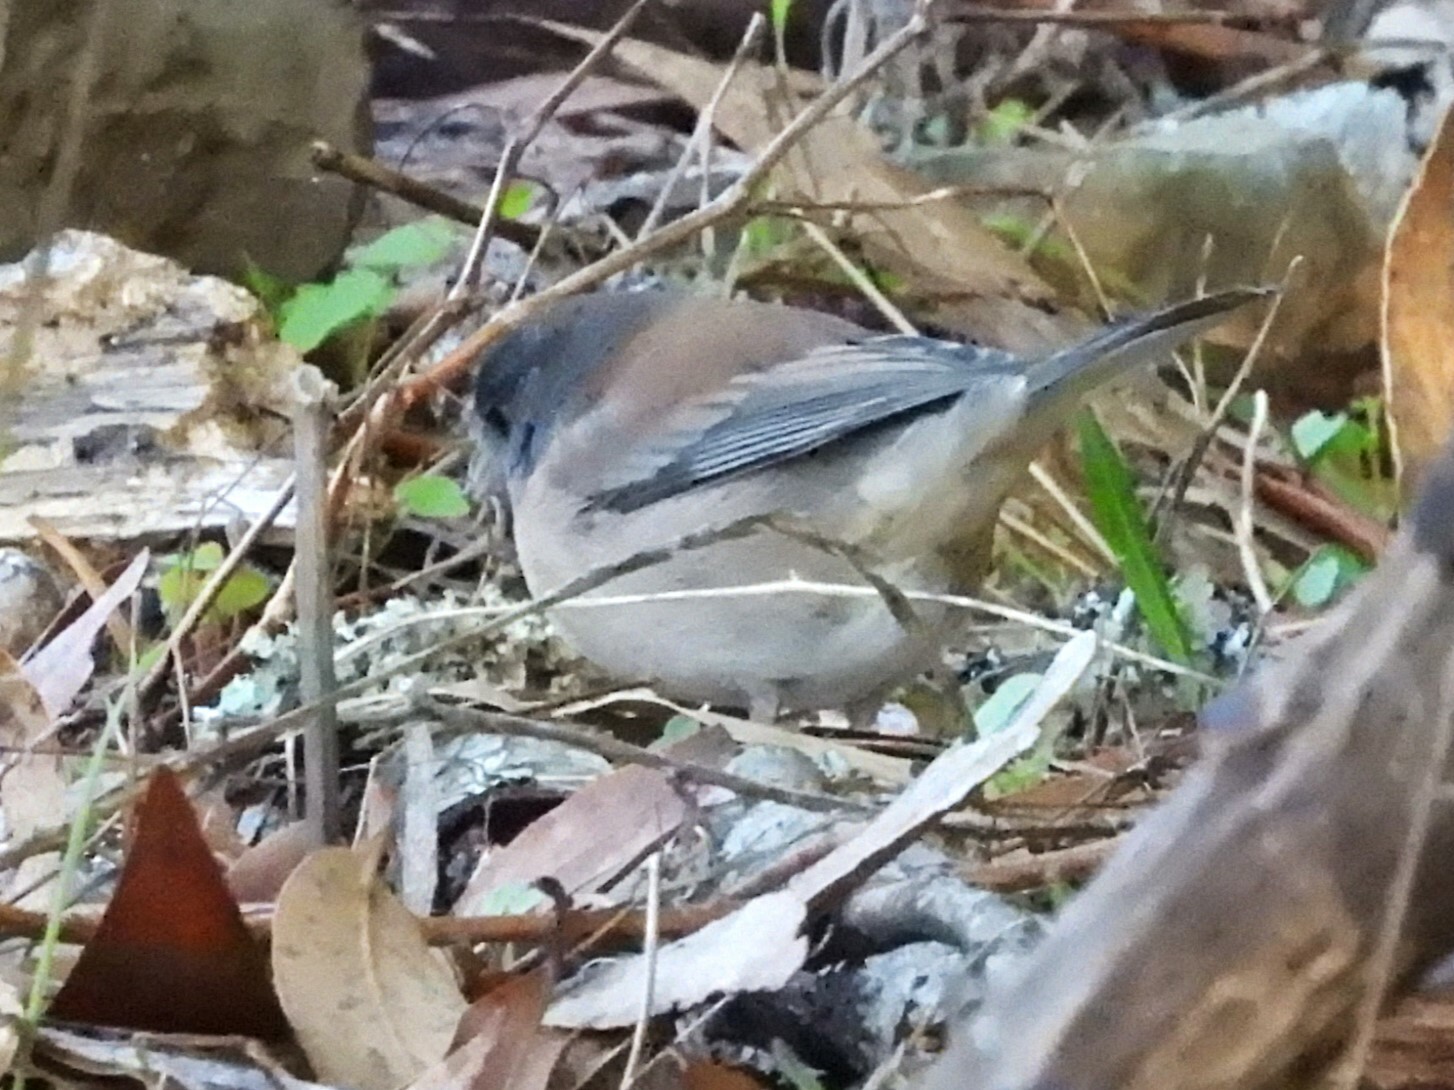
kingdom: Animalia
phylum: Chordata
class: Aves
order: Passeriformes
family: Passerellidae
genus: Junco
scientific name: Junco hyemalis
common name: Dark-eyed junco
